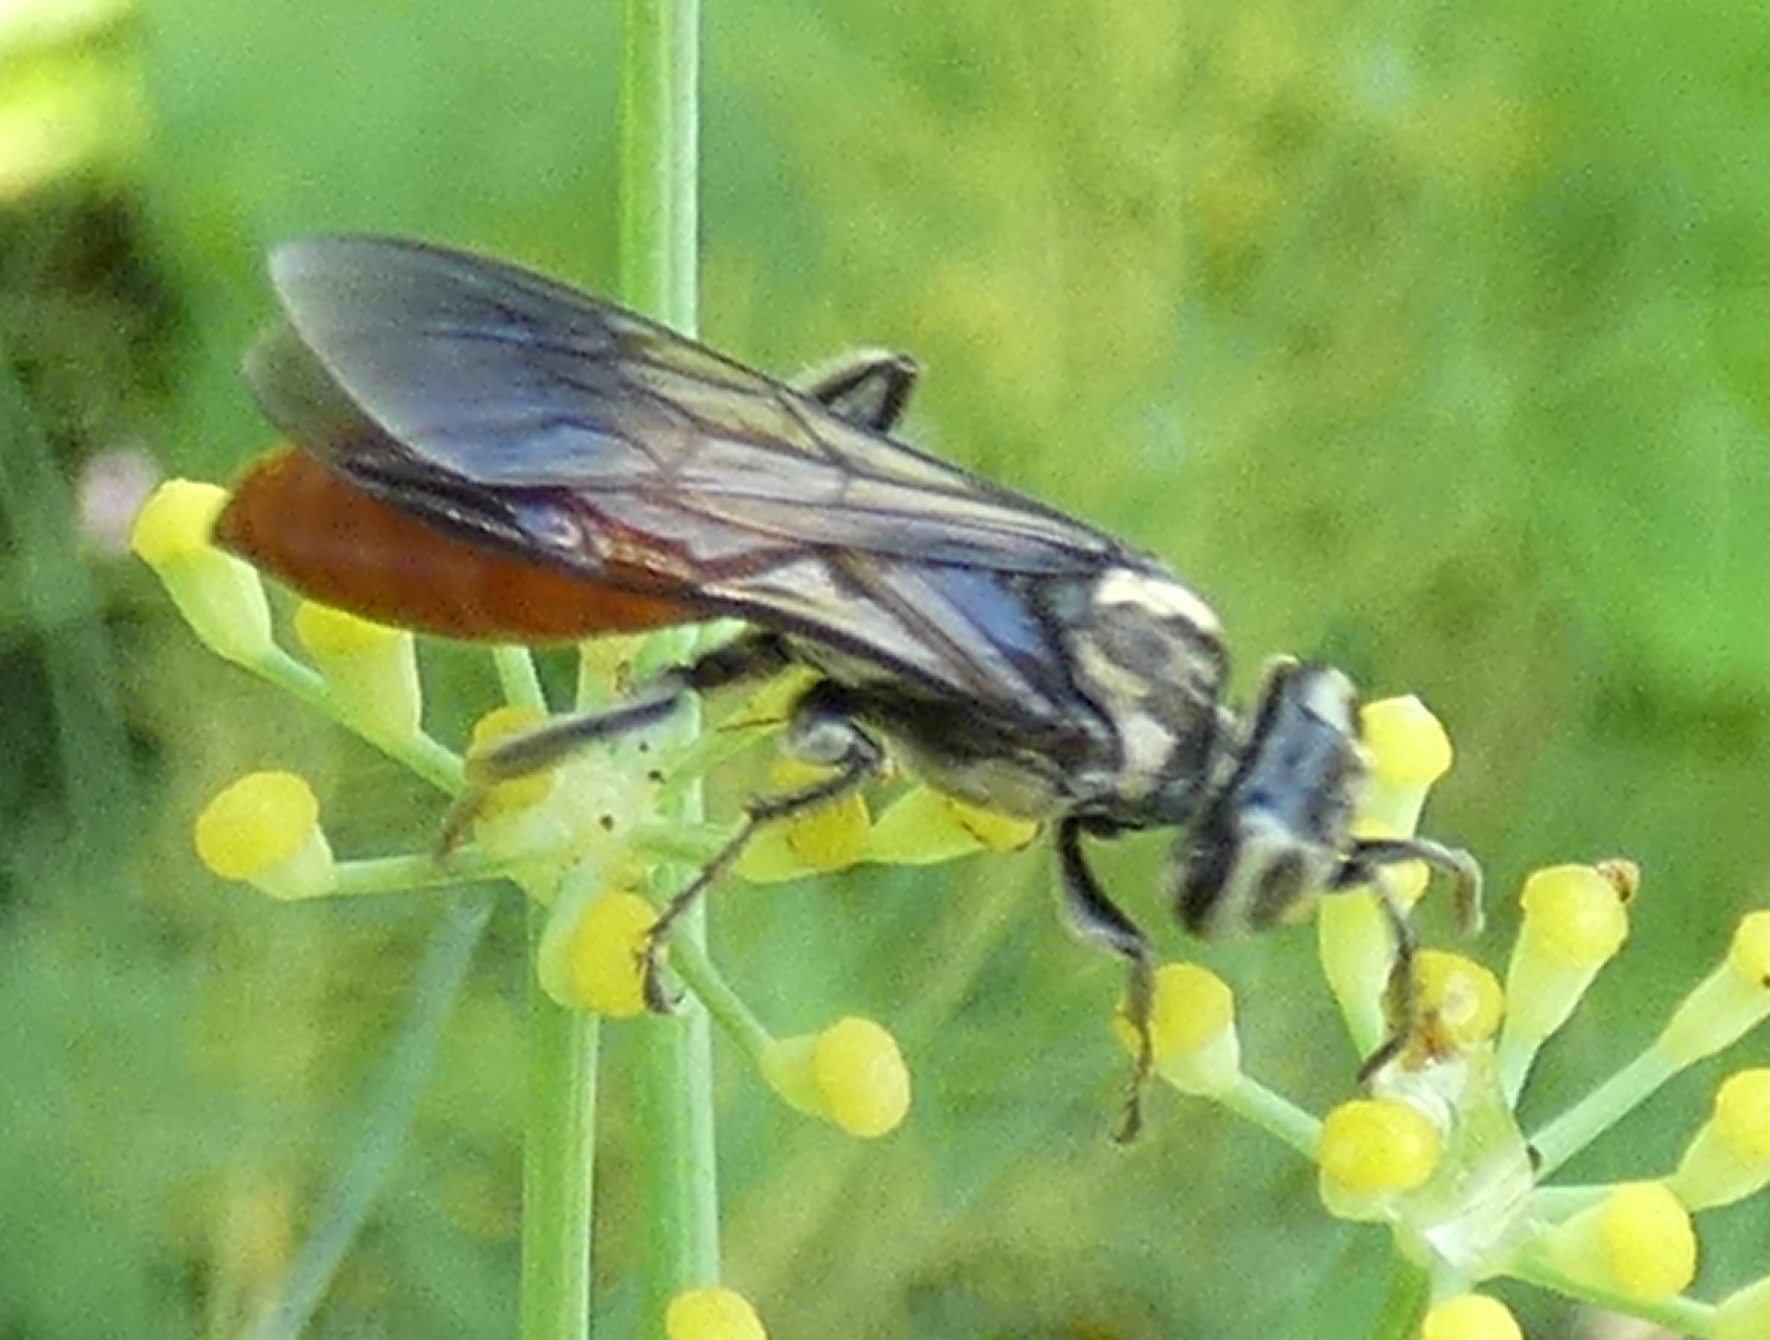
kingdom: Animalia
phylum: Arthropoda
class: Insecta
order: Hymenoptera
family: Crabronidae
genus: Larra
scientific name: Larra bicolor
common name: Wasp
